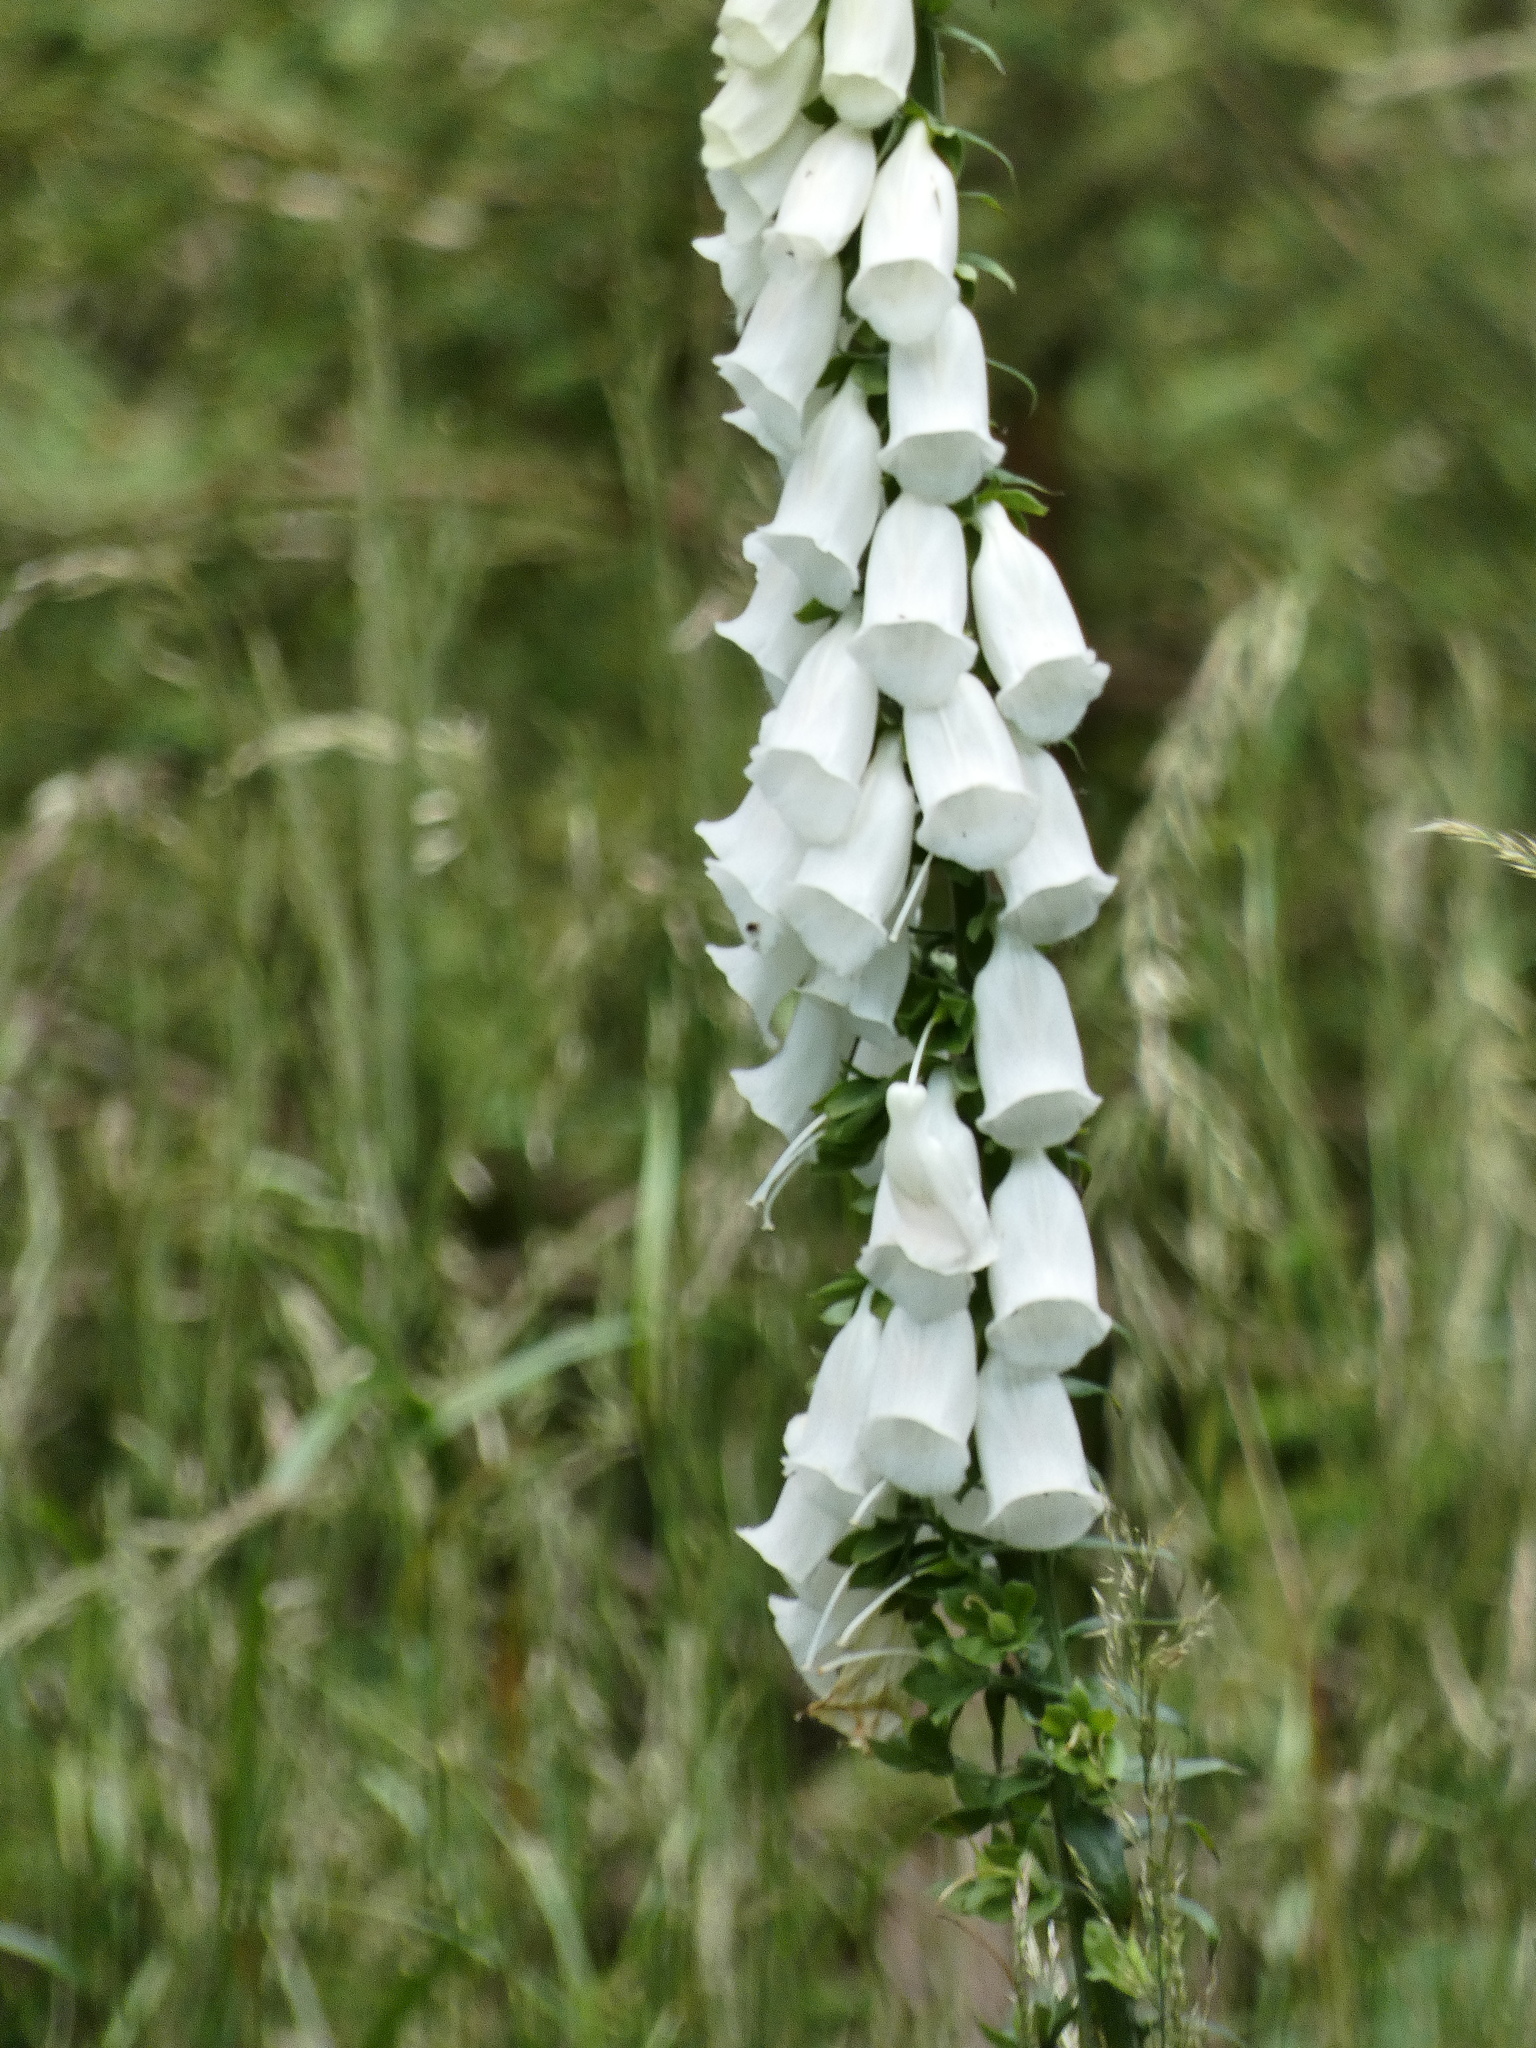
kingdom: Plantae
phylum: Tracheophyta
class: Magnoliopsida
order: Lamiales
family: Plantaginaceae
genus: Digitalis
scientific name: Digitalis purpurea
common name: Foxglove
